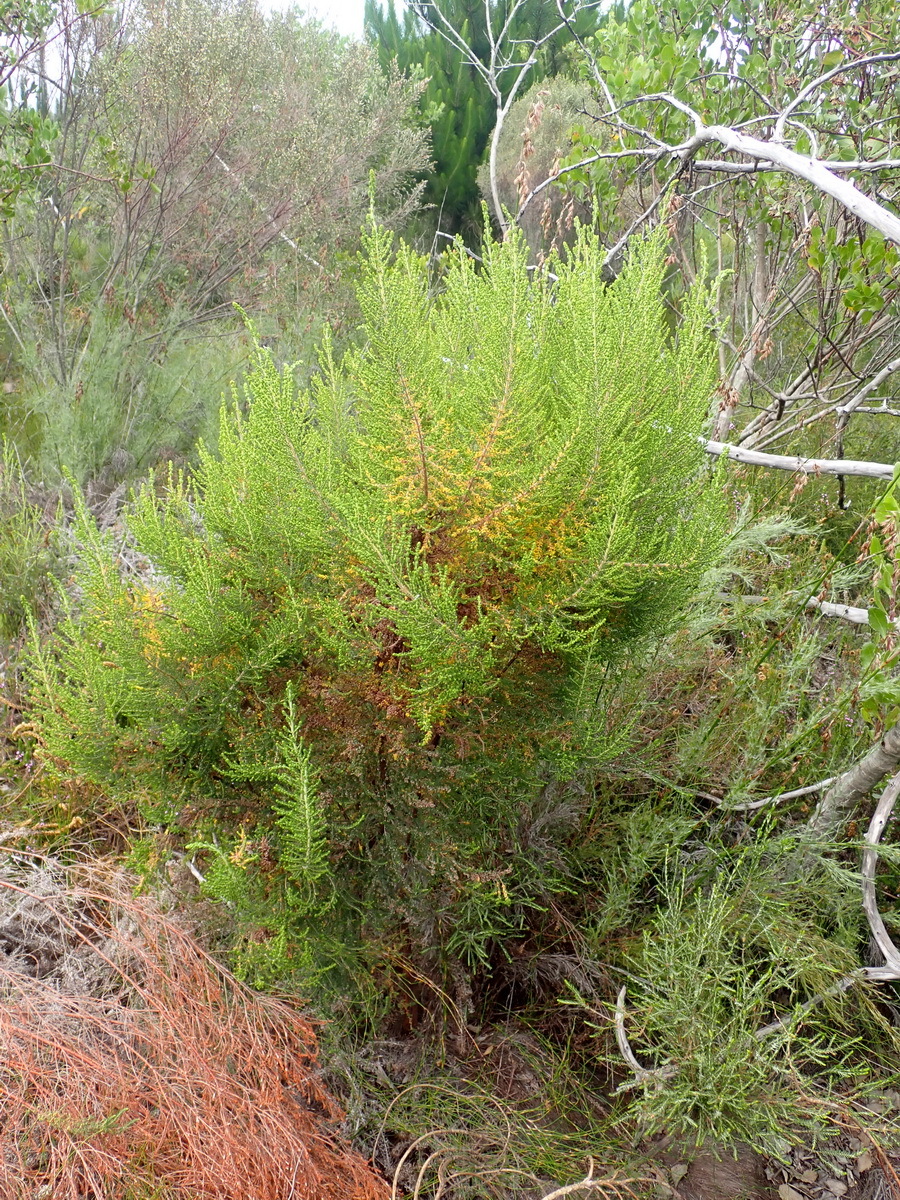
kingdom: Plantae
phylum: Tracheophyta
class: Magnoliopsida
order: Ericales
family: Ericaceae
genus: Erica
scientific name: Erica leucopelta
